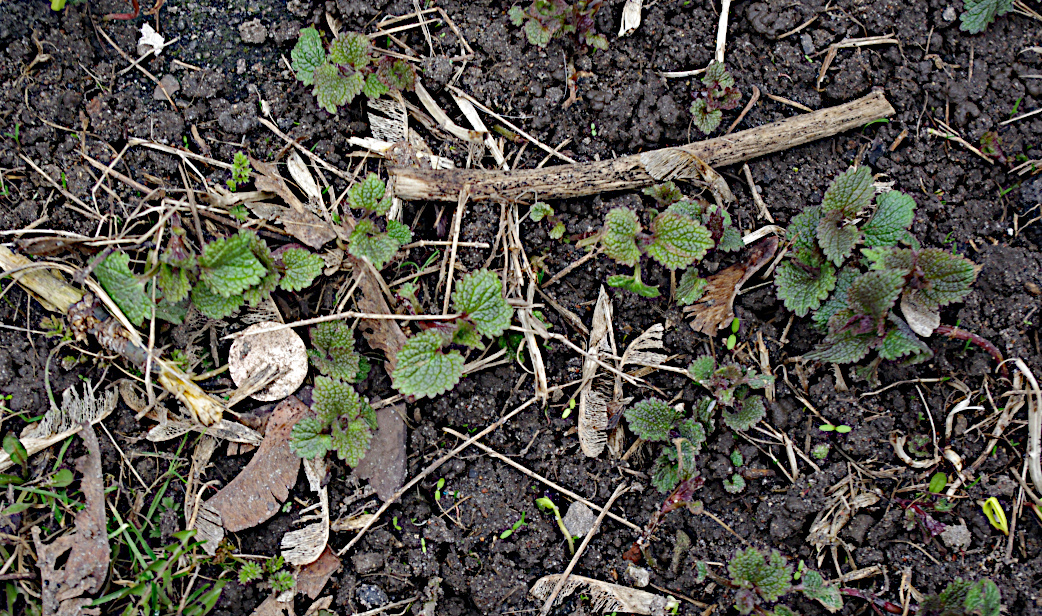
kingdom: Plantae
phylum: Tracheophyta
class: Magnoliopsida
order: Lamiales
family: Lamiaceae
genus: Lamium
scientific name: Lamium album
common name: White dead-nettle
